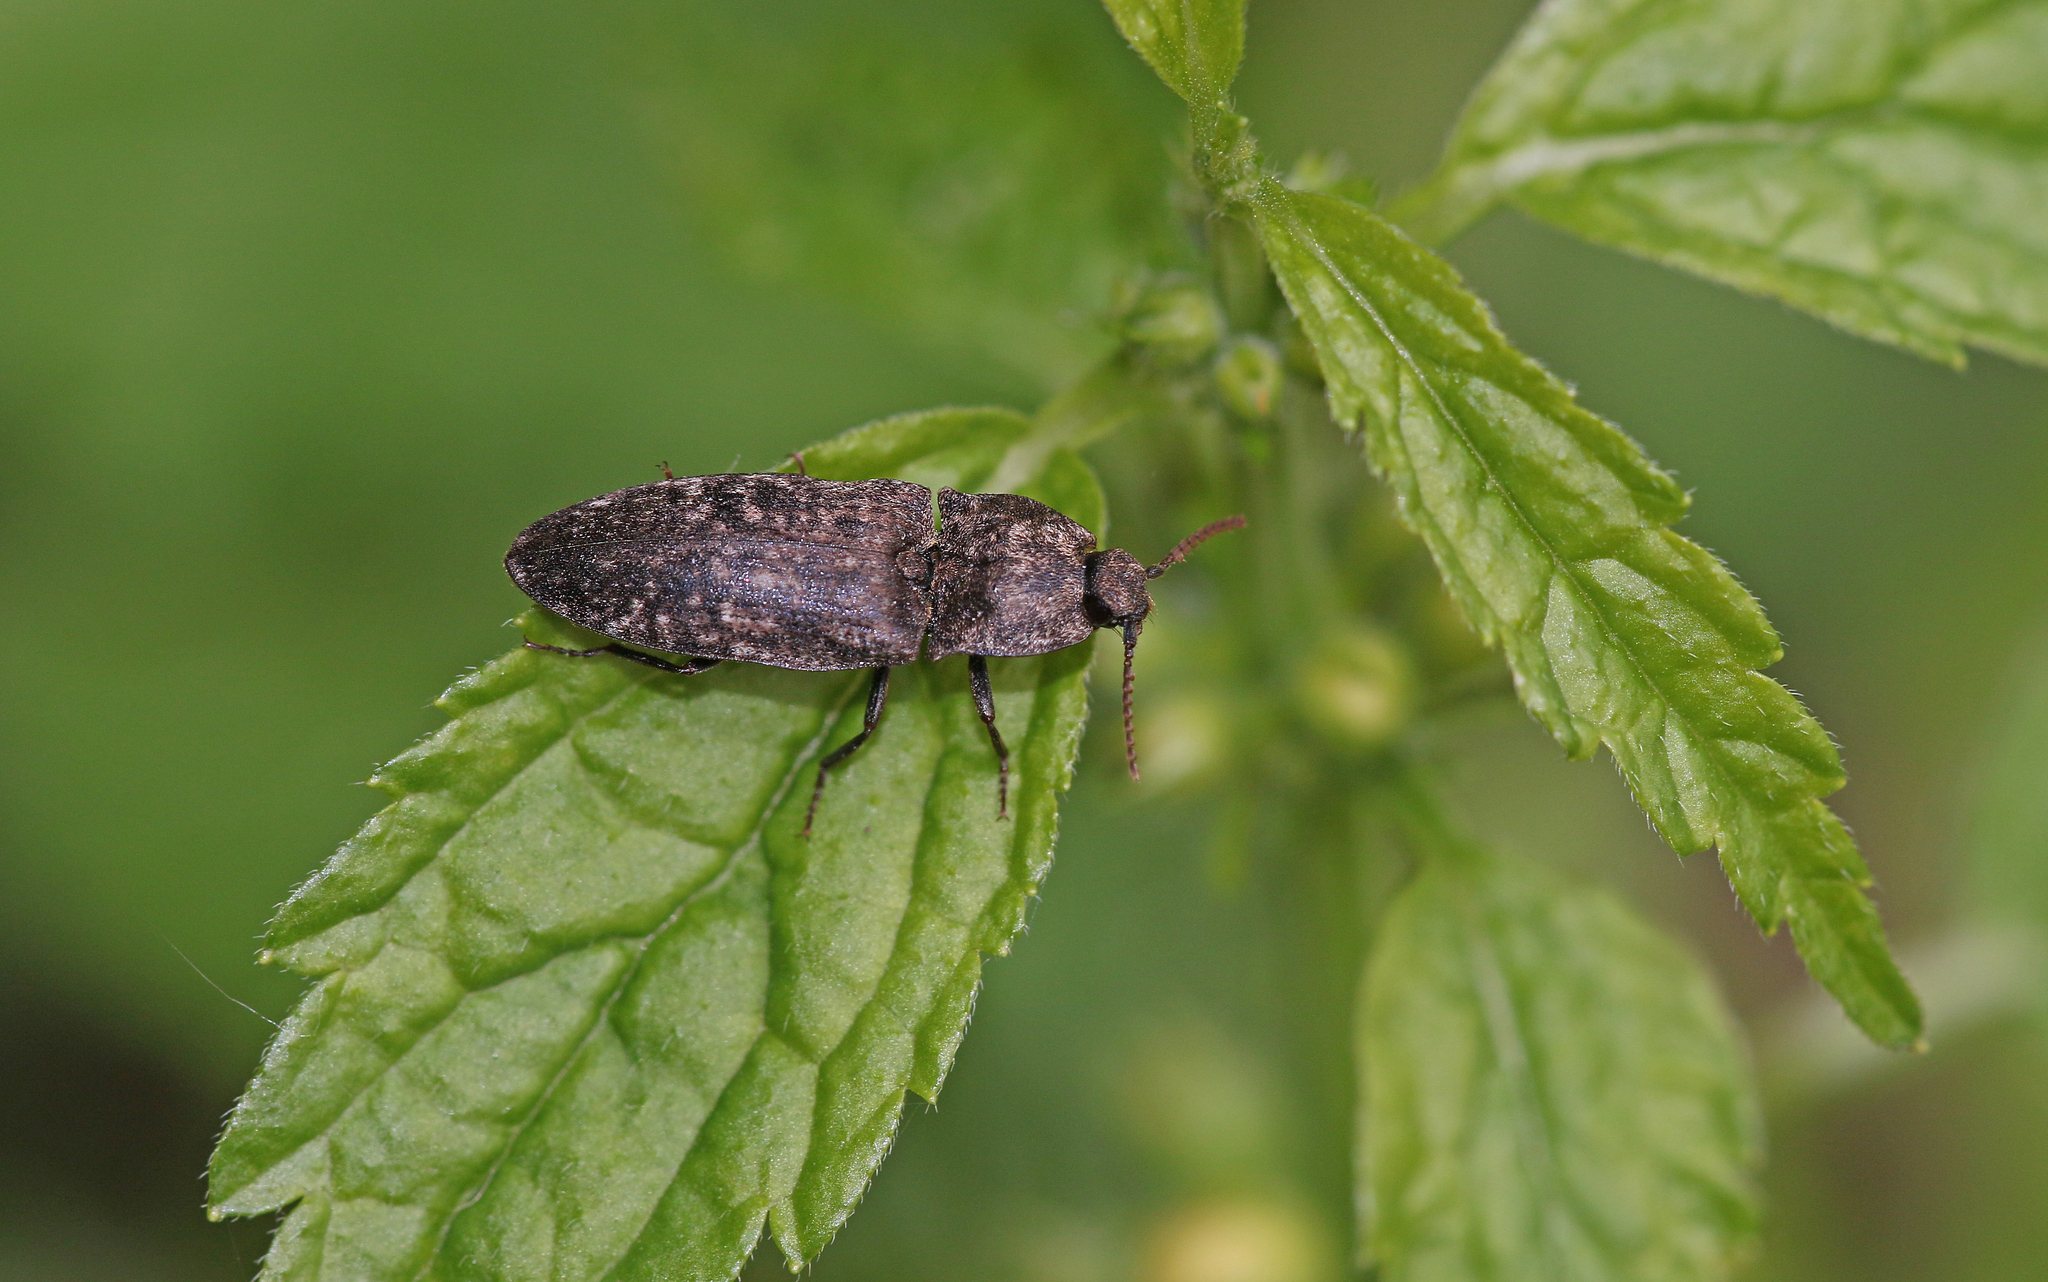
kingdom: Animalia
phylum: Arthropoda
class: Insecta
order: Coleoptera
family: Elateridae
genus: Agrypnus
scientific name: Agrypnus murinus
